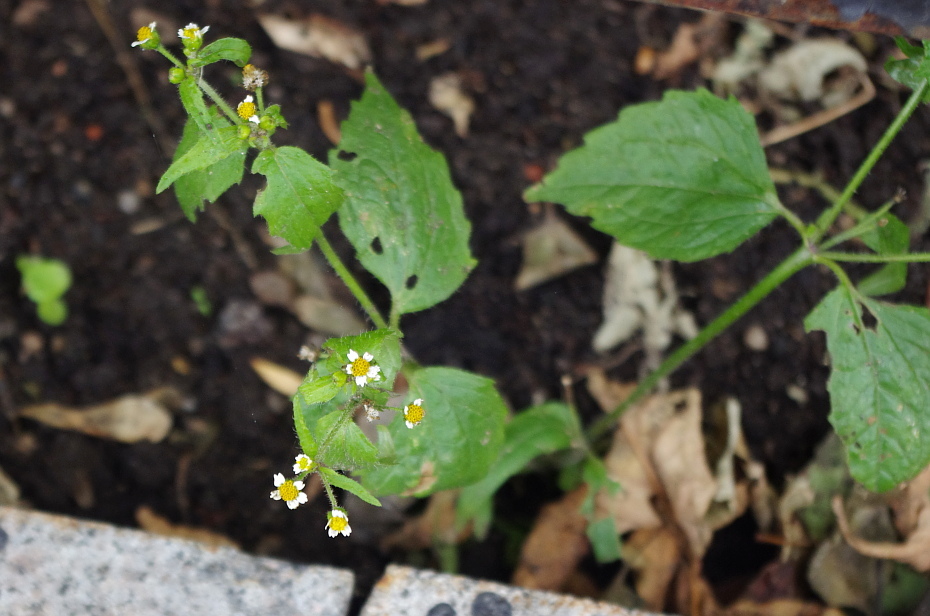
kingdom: Plantae
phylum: Tracheophyta
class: Magnoliopsida
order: Asterales
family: Asteraceae
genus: Galinsoga
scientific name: Galinsoga quadriradiata
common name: Shaggy soldier
